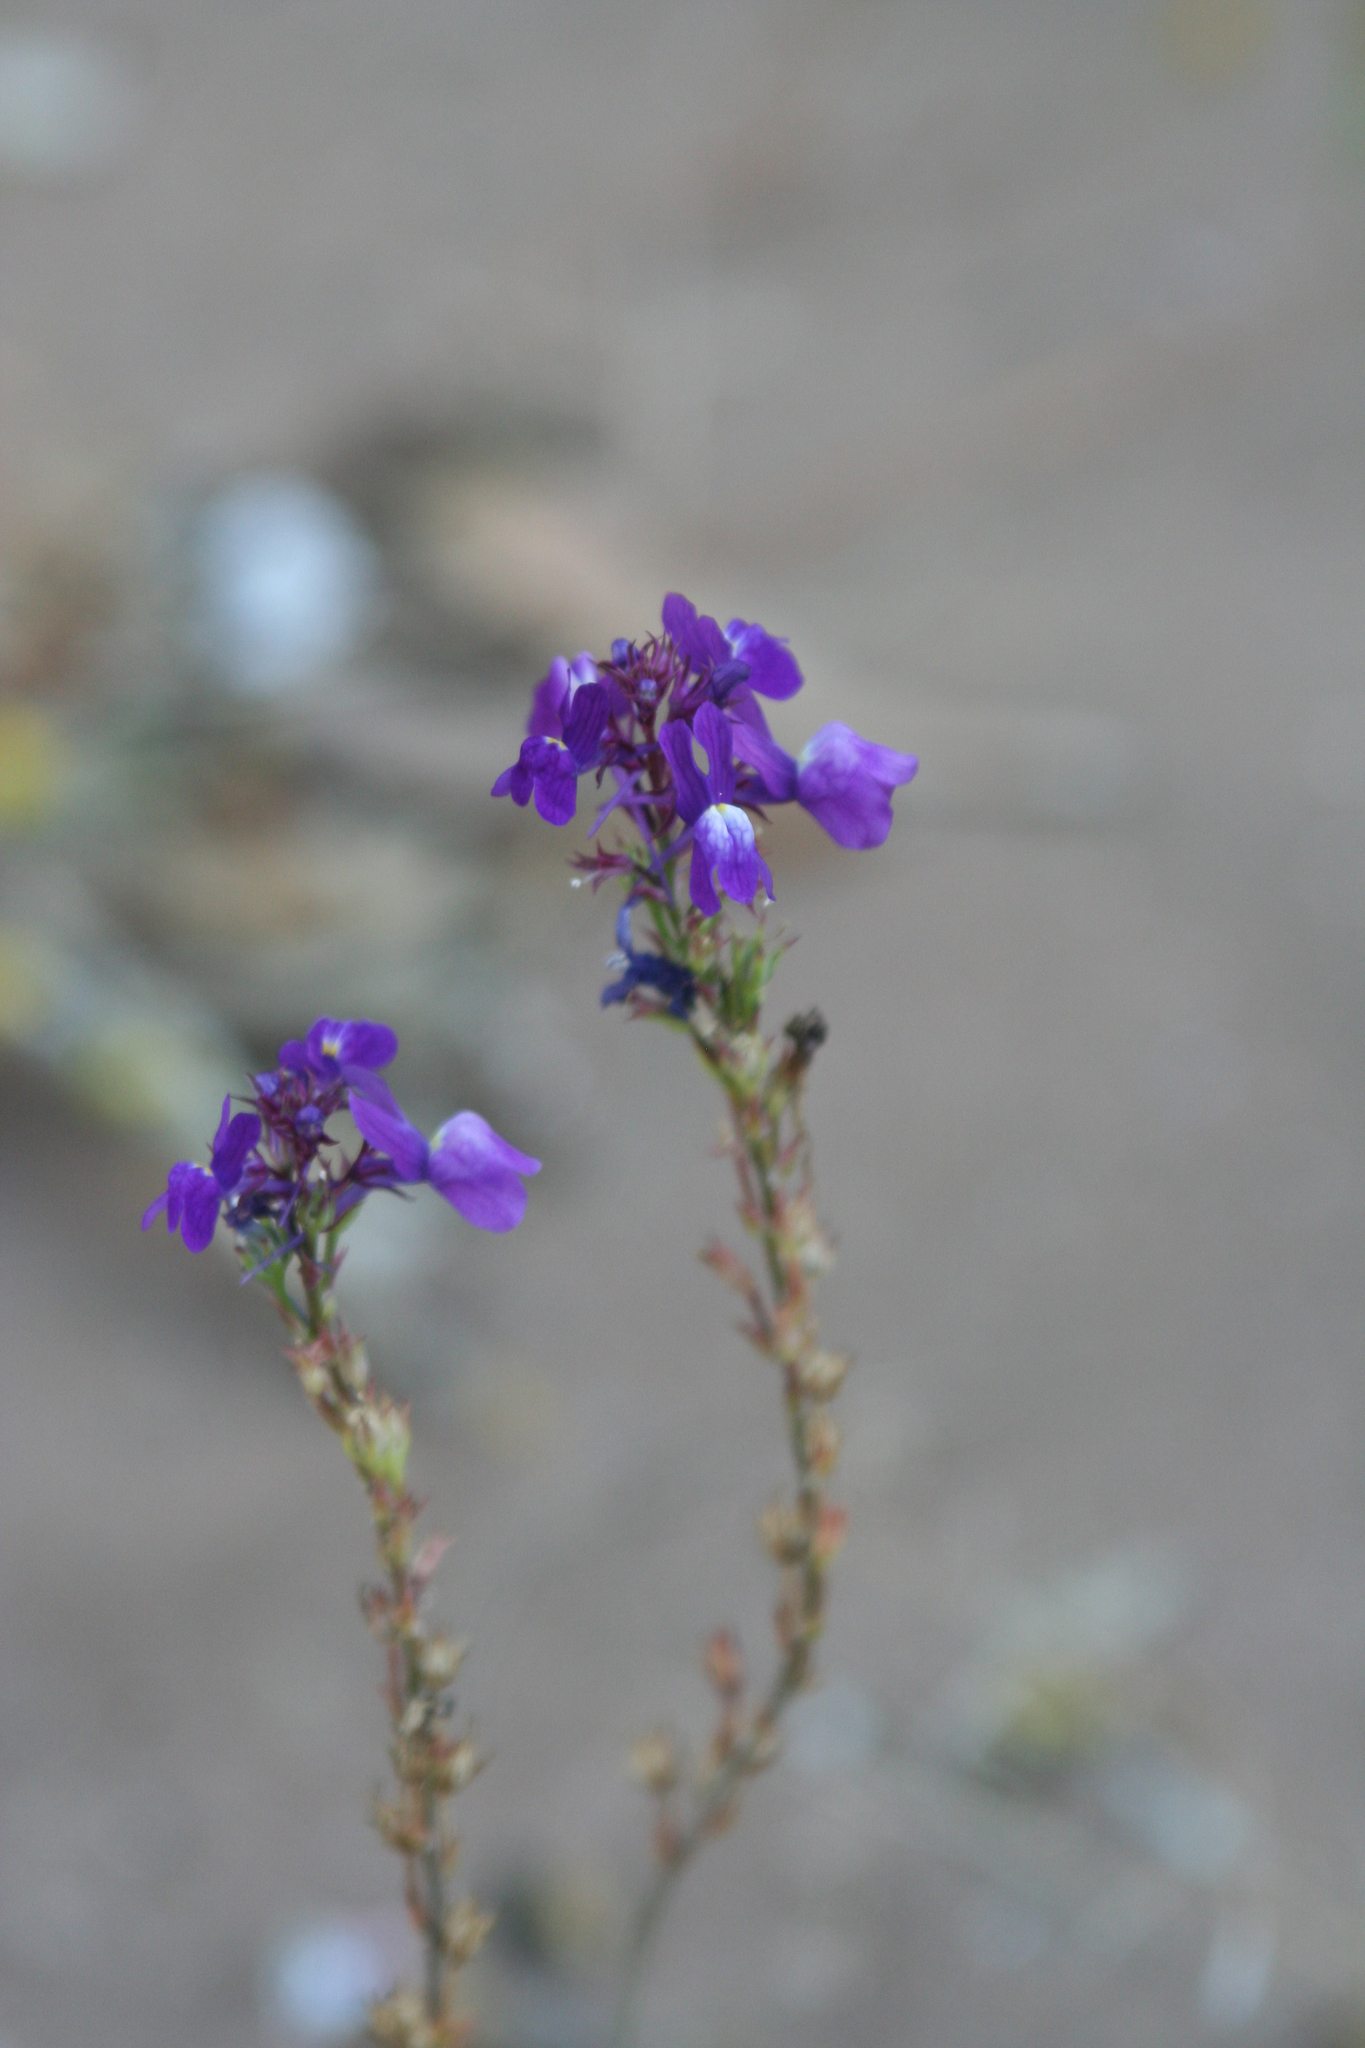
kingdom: Plantae
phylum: Tracheophyta
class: Magnoliopsida
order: Lamiales
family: Plantaginaceae
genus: Linaria
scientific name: Linaria bipartita
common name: Clovenlip toadflax
